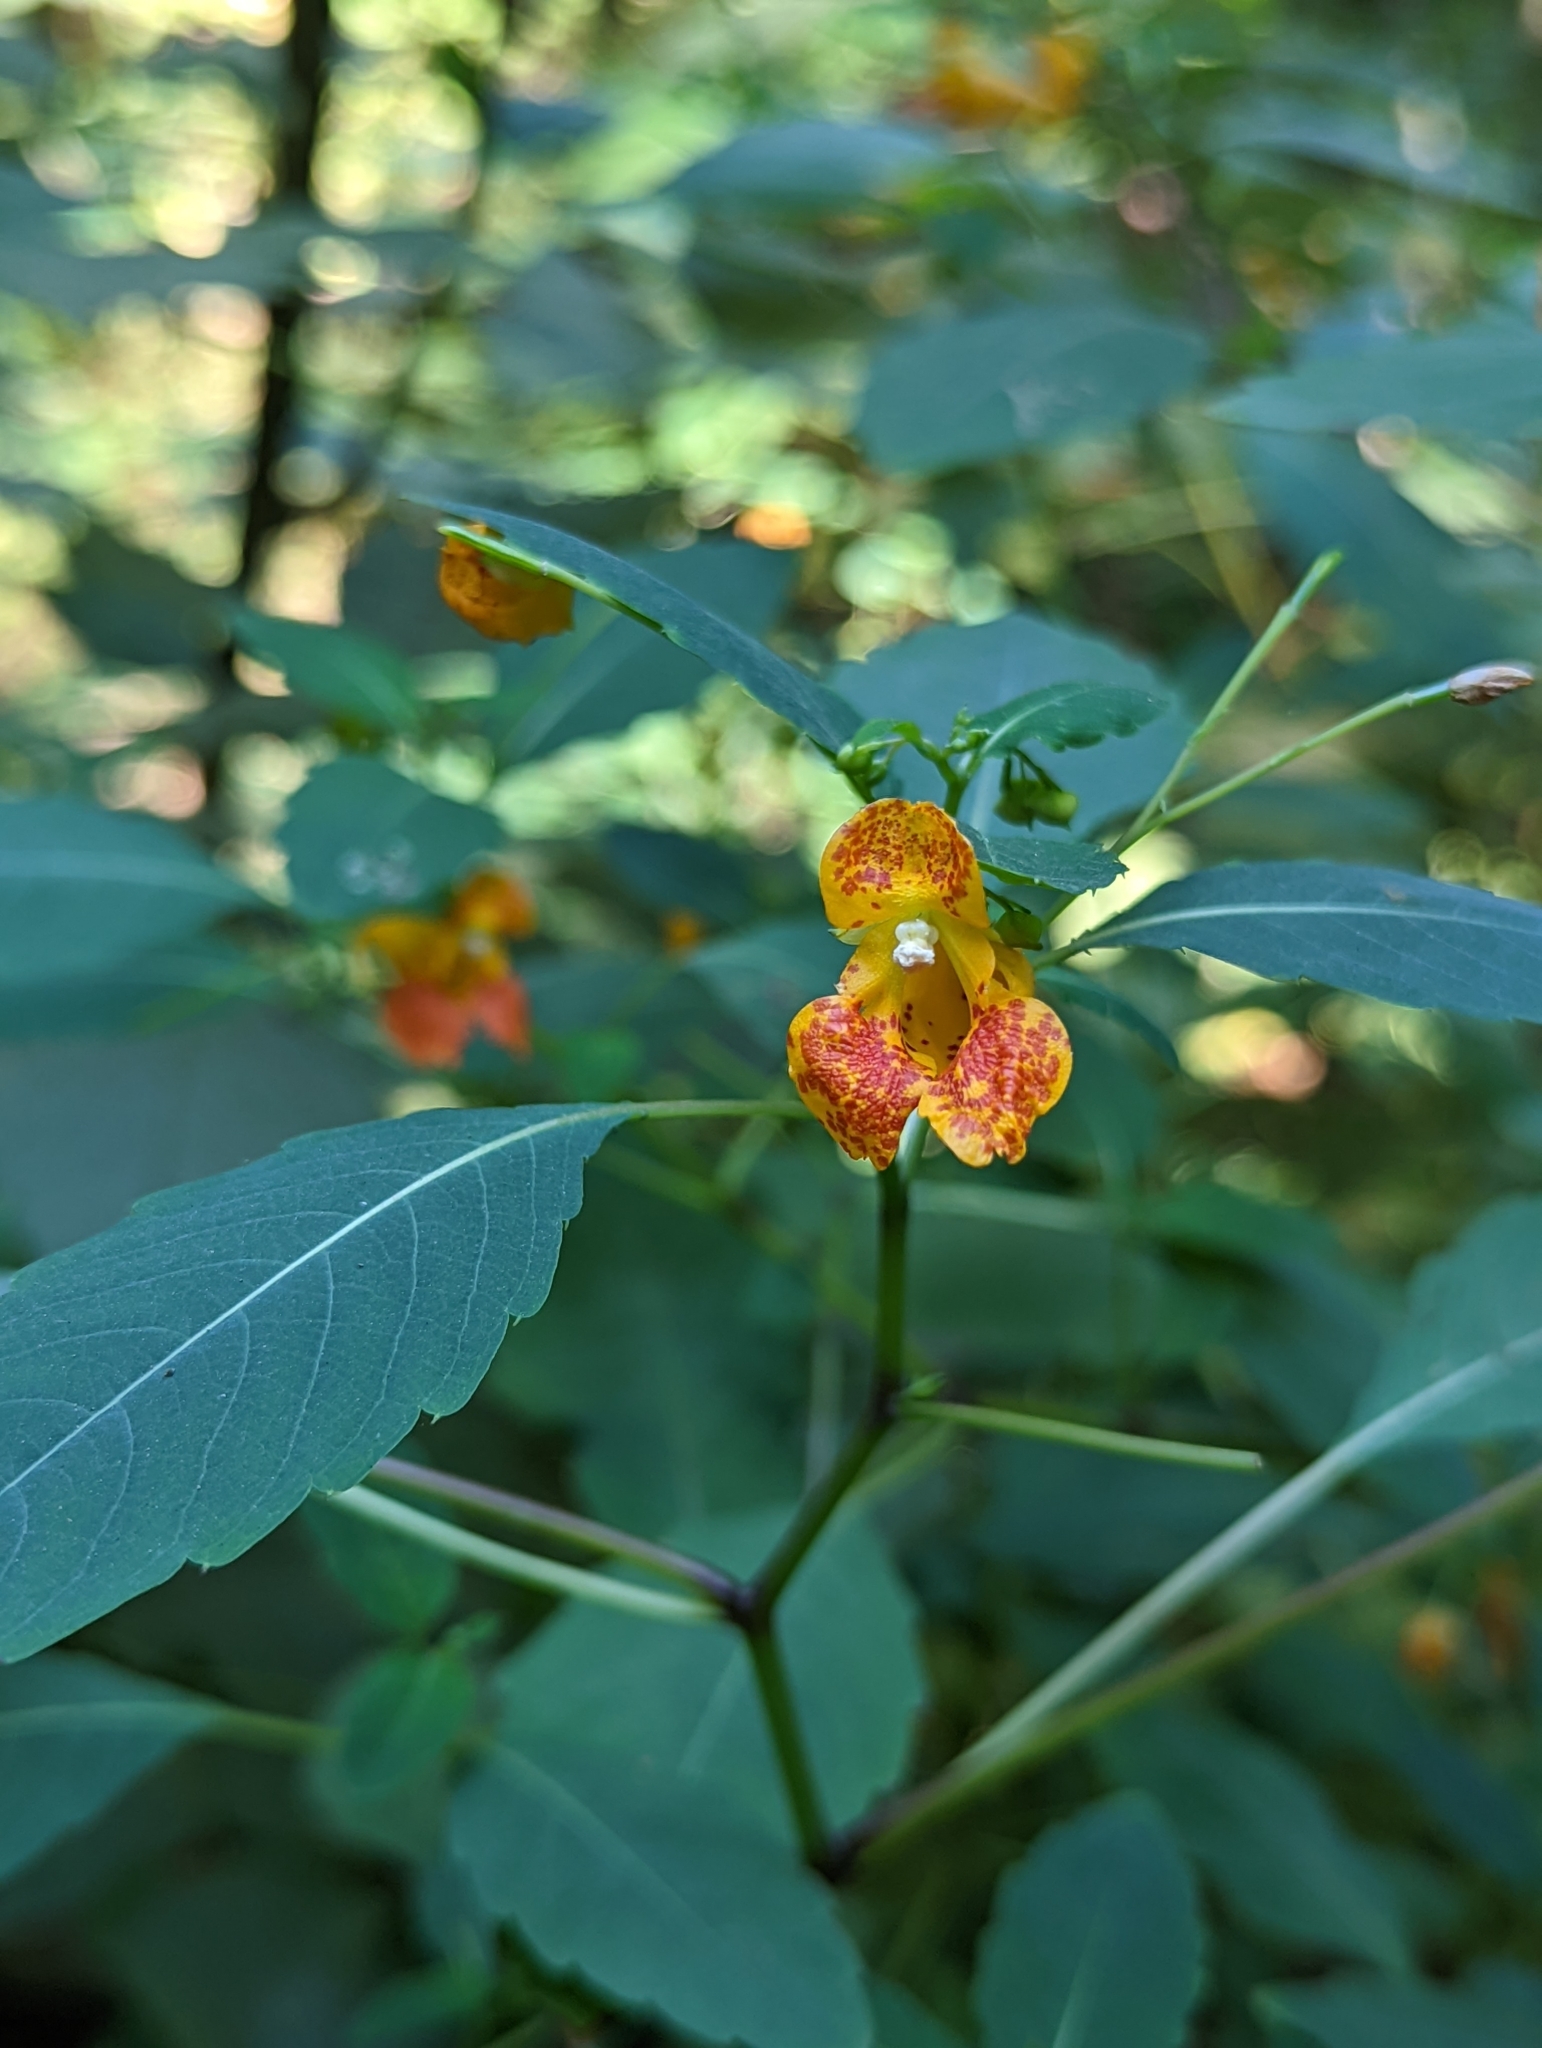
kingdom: Plantae
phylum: Tracheophyta
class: Magnoliopsida
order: Ericales
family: Balsaminaceae
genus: Impatiens
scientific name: Impatiens capensis
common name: Orange balsam
